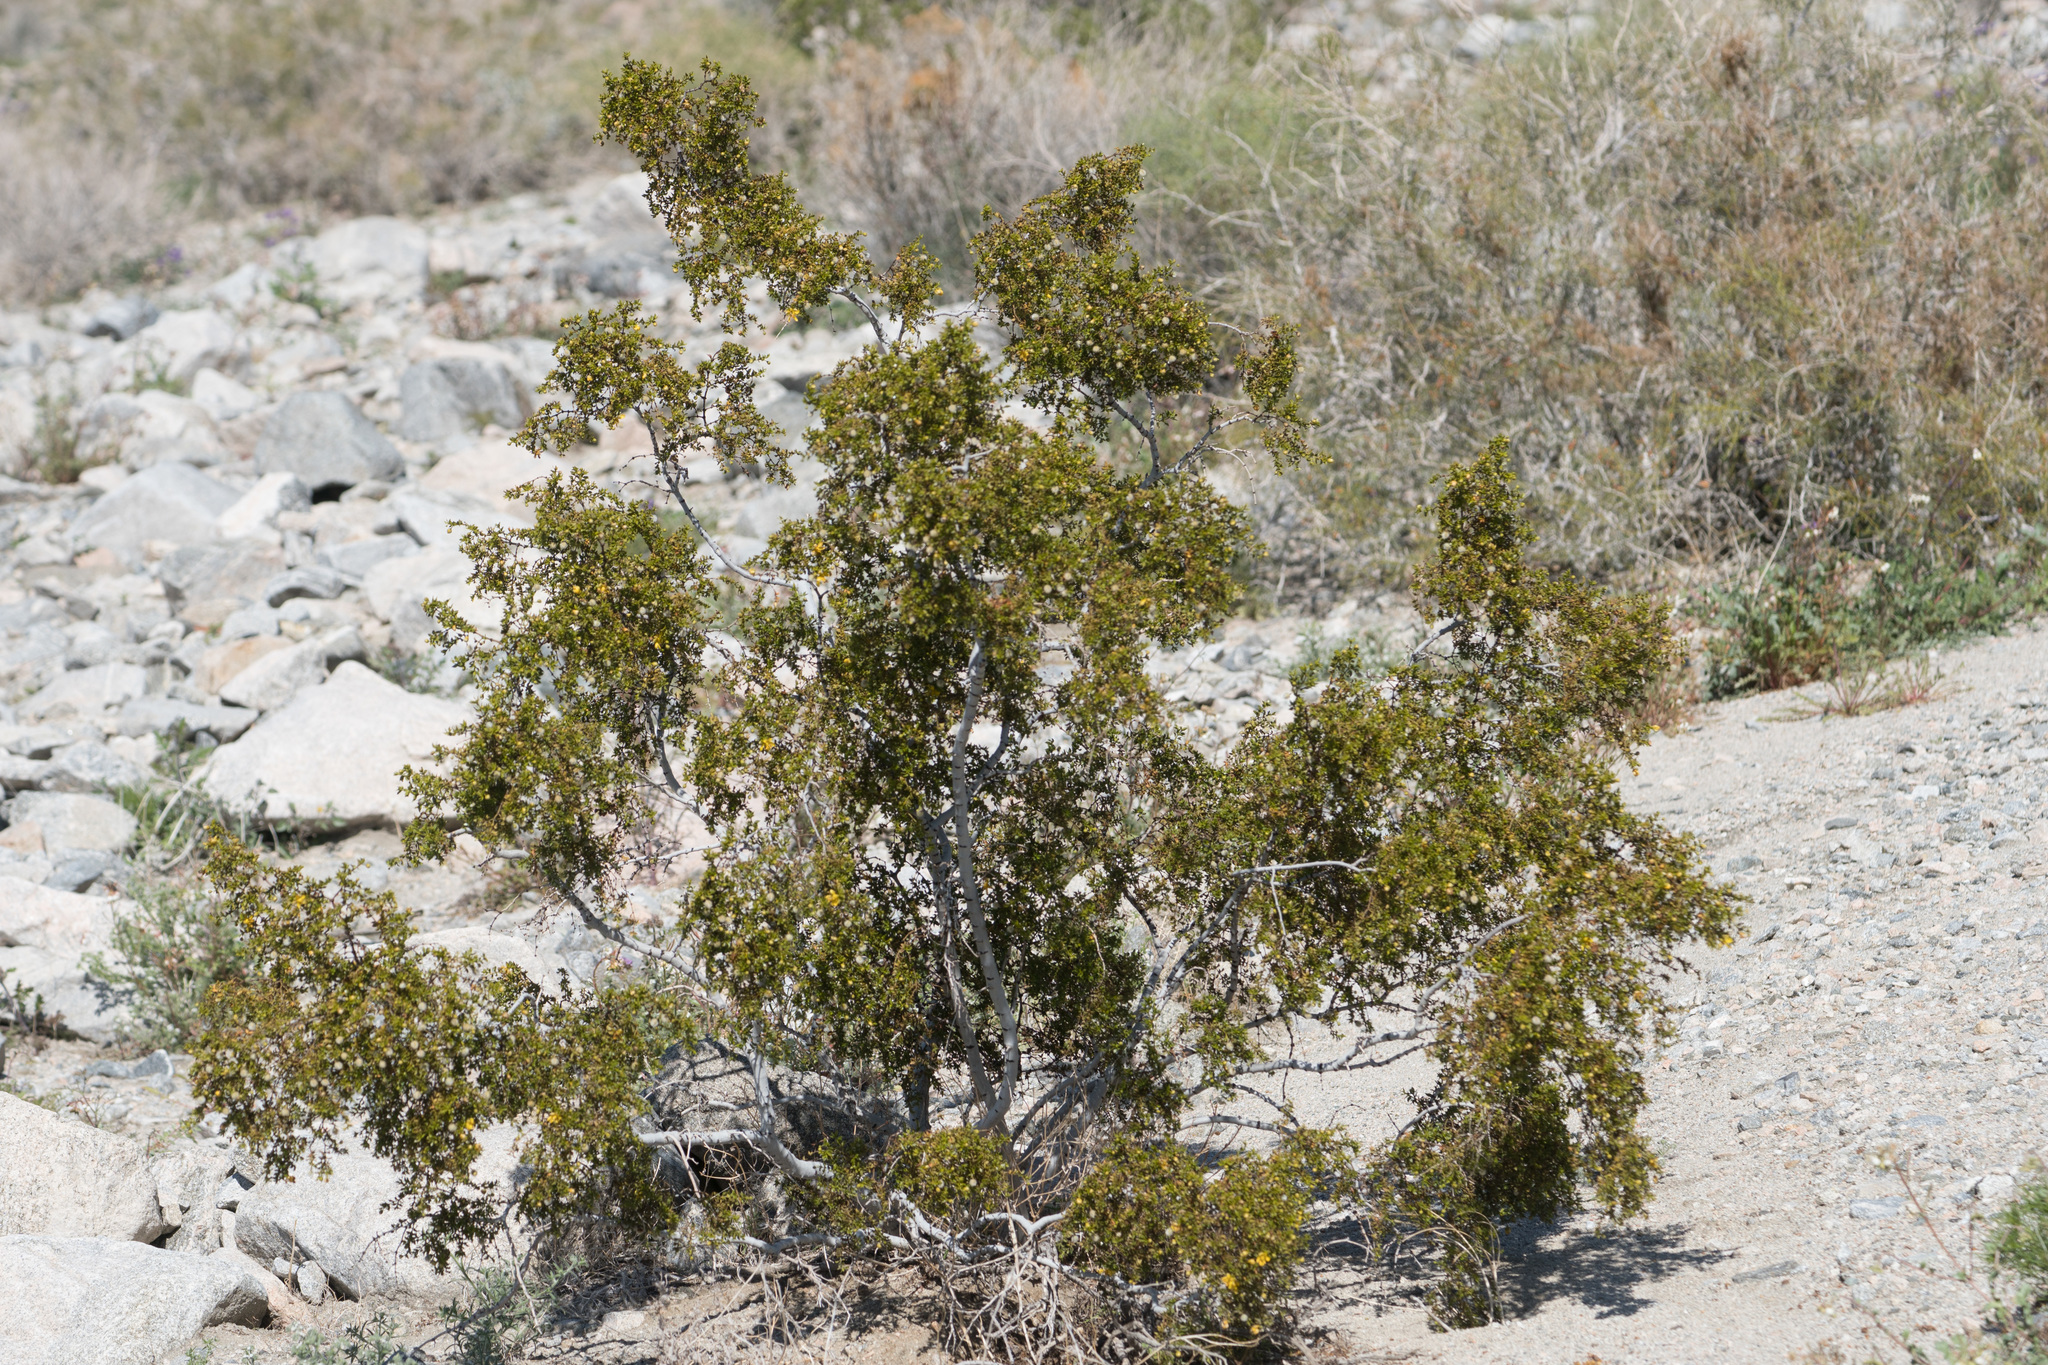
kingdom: Plantae
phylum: Tracheophyta
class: Magnoliopsida
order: Zygophyllales
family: Zygophyllaceae
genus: Larrea
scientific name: Larrea tridentata
